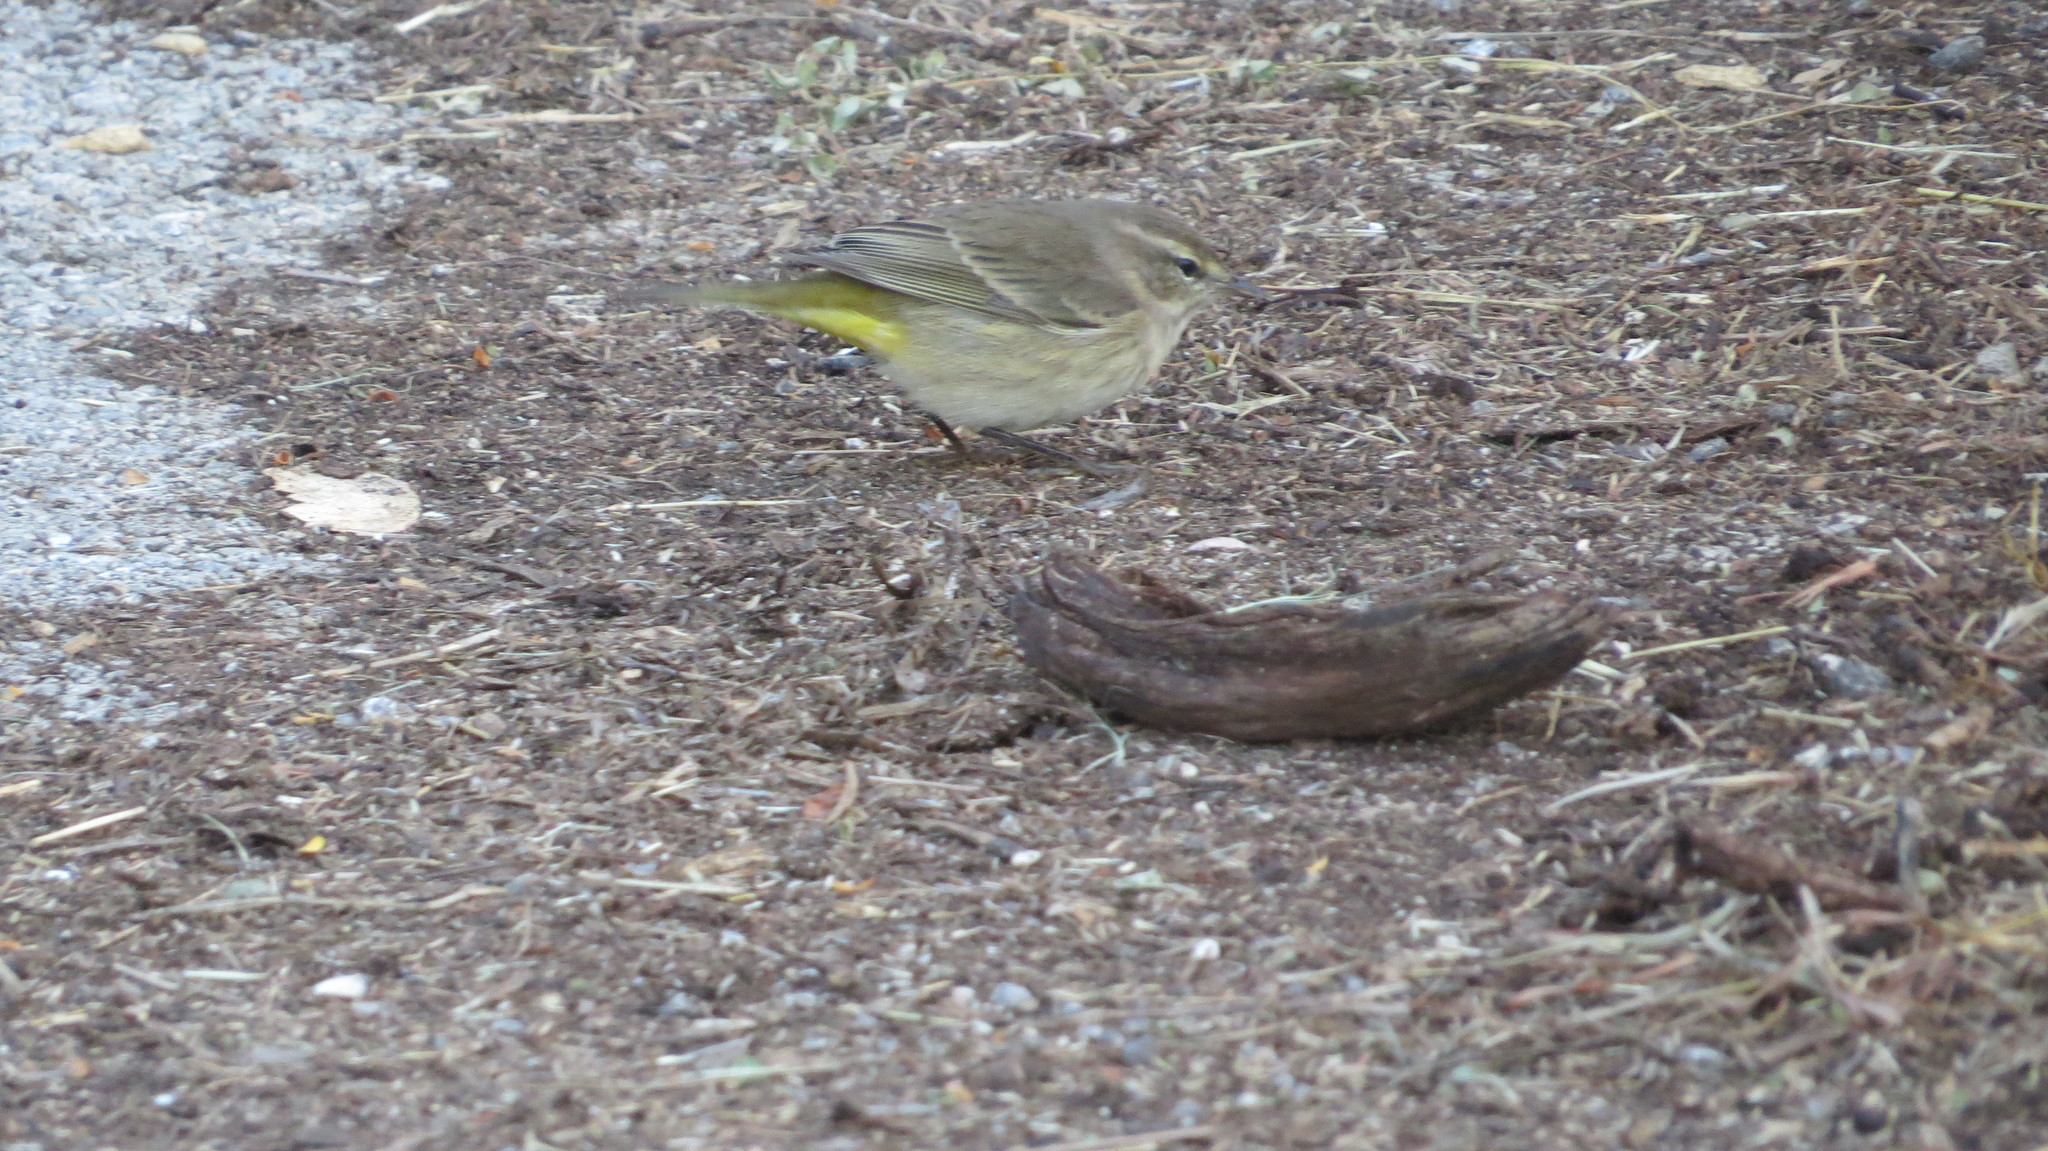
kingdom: Animalia
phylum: Chordata
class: Aves
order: Passeriformes
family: Parulidae
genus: Setophaga
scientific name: Setophaga palmarum
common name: Palm warbler
